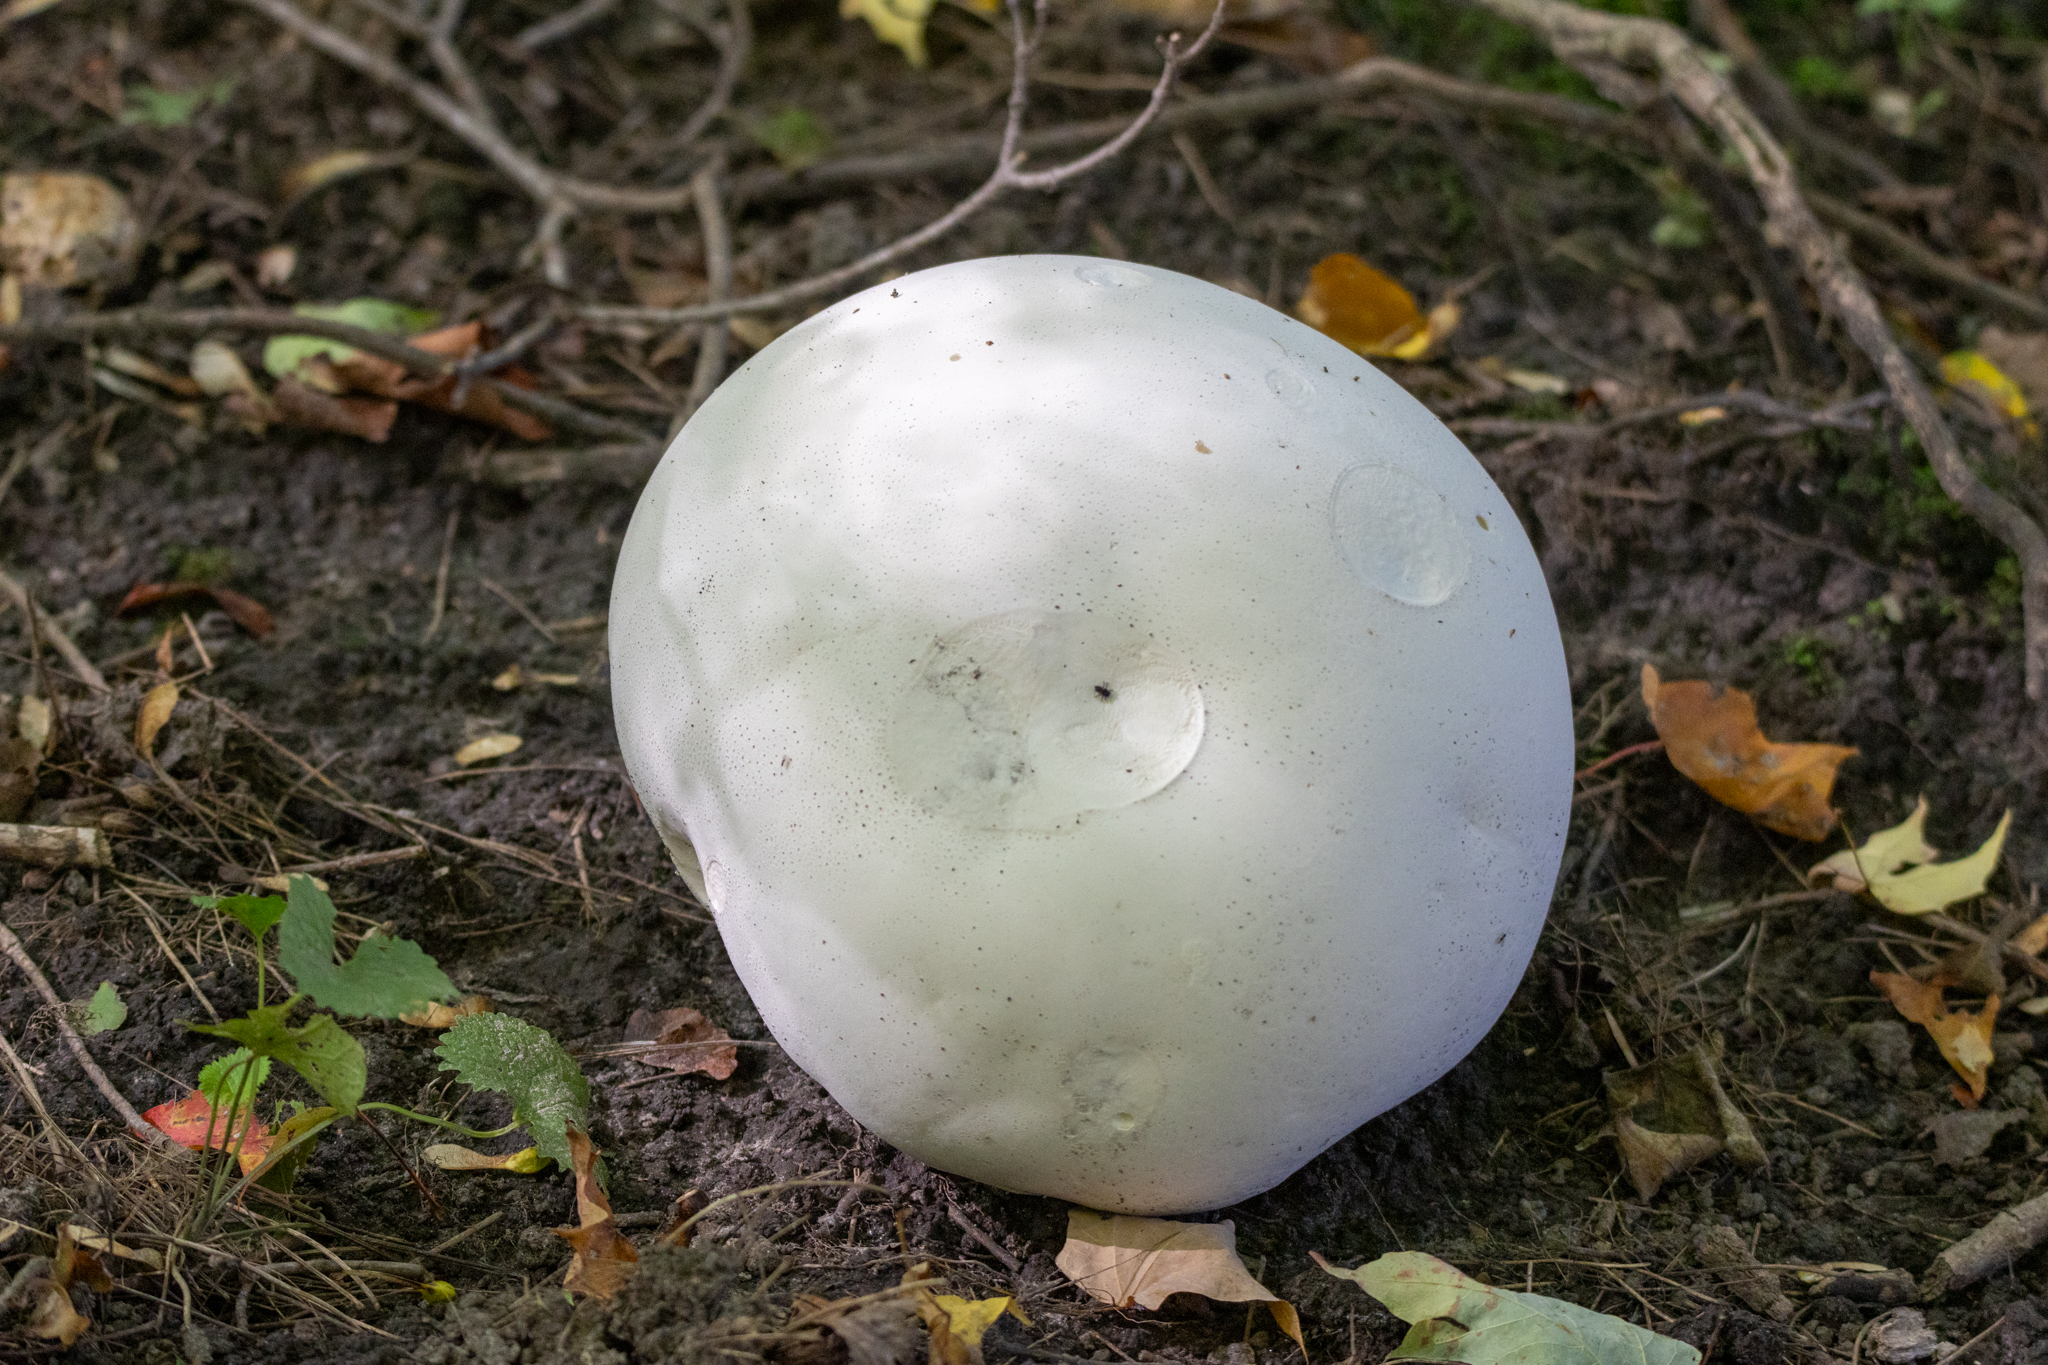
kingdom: Fungi
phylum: Basidiomycota
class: Agaricomycetes
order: Agaricales
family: Lycoperdaceae
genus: Calvatia
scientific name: Calvatia gigantea
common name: Giant puffball
